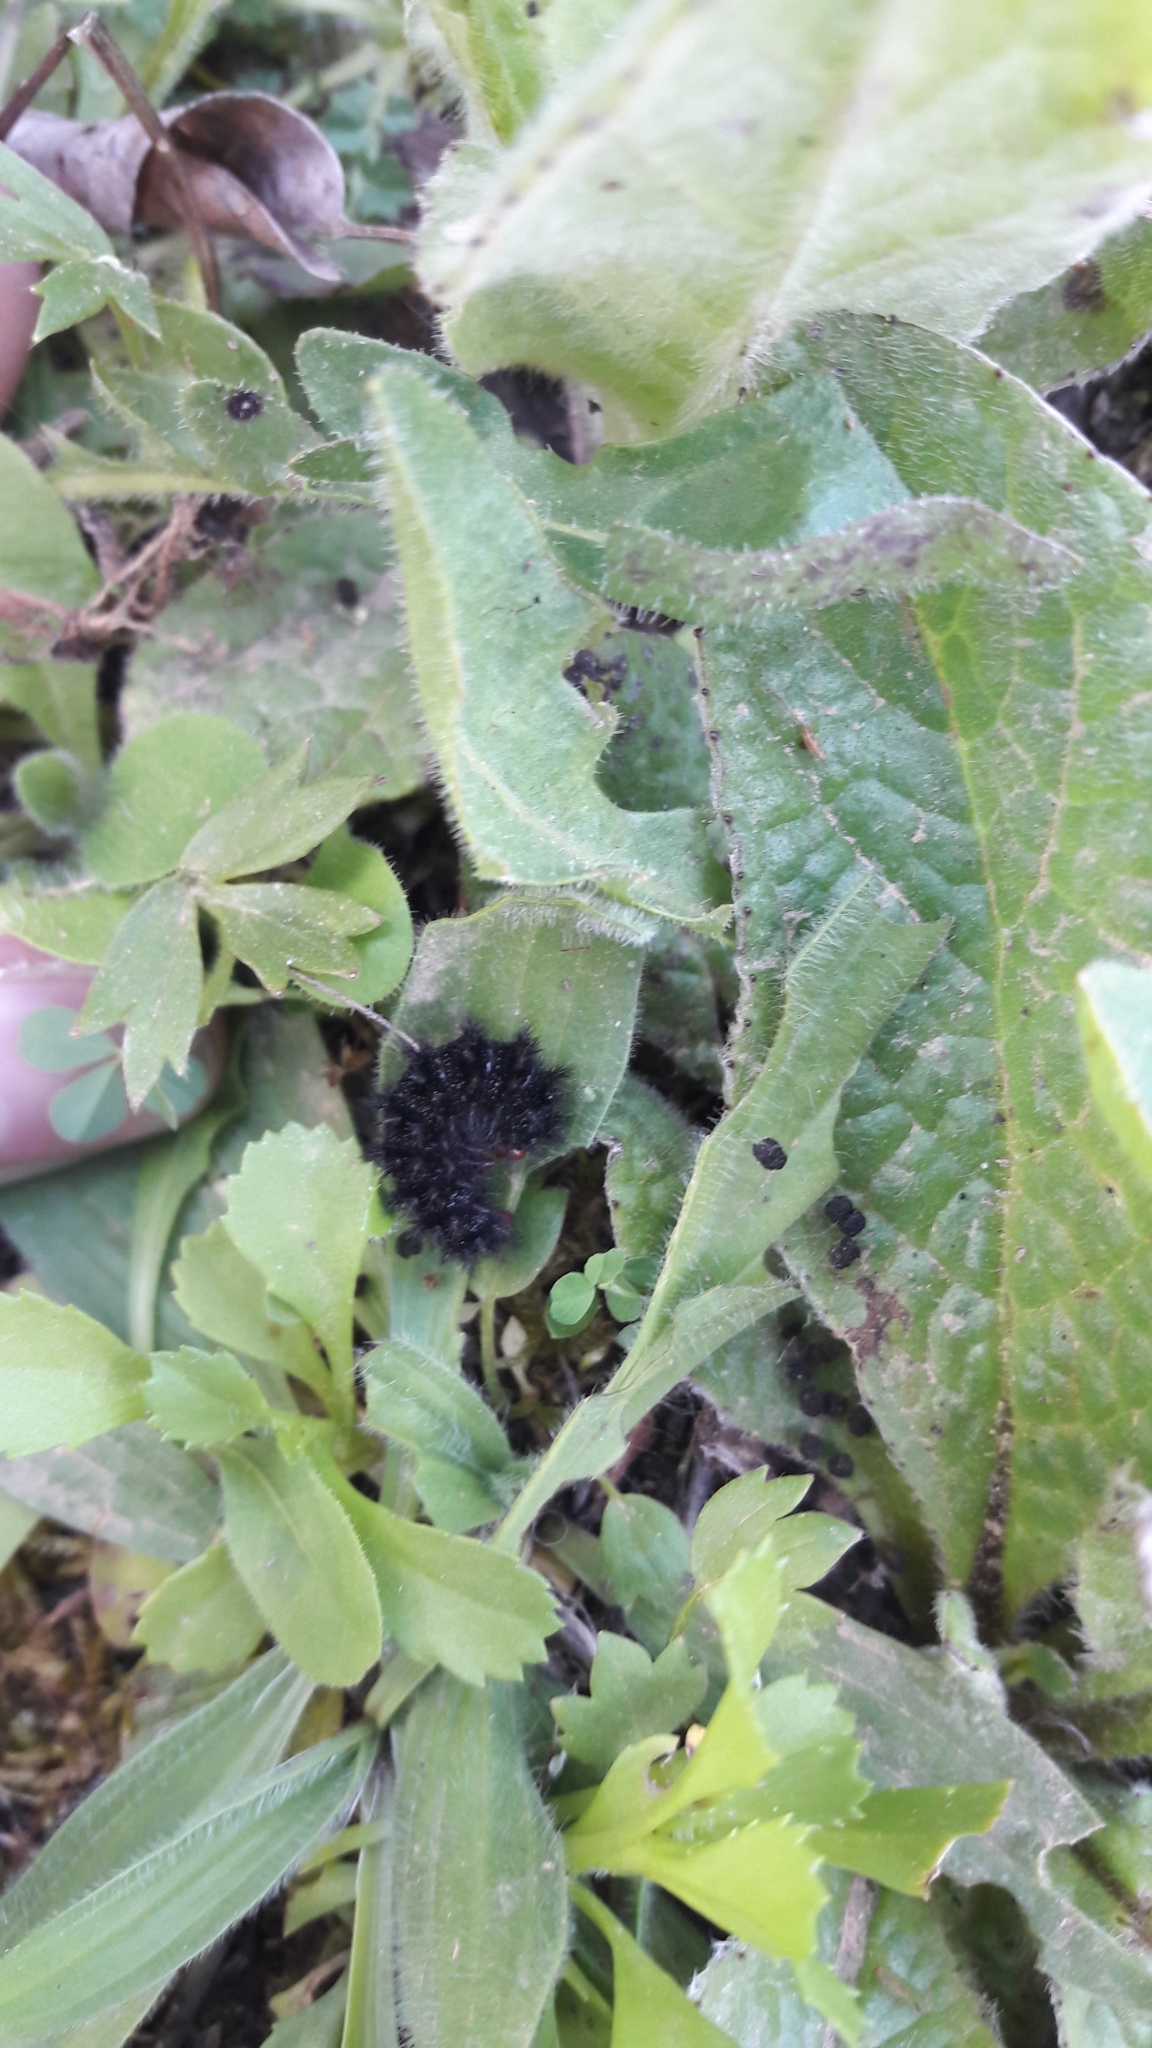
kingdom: Animalia
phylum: Arthropoda
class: Insecta
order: Lepidoptera
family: Nymphalidae
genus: Melitaea
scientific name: Melitaea cinxia
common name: Glanville fritillary
